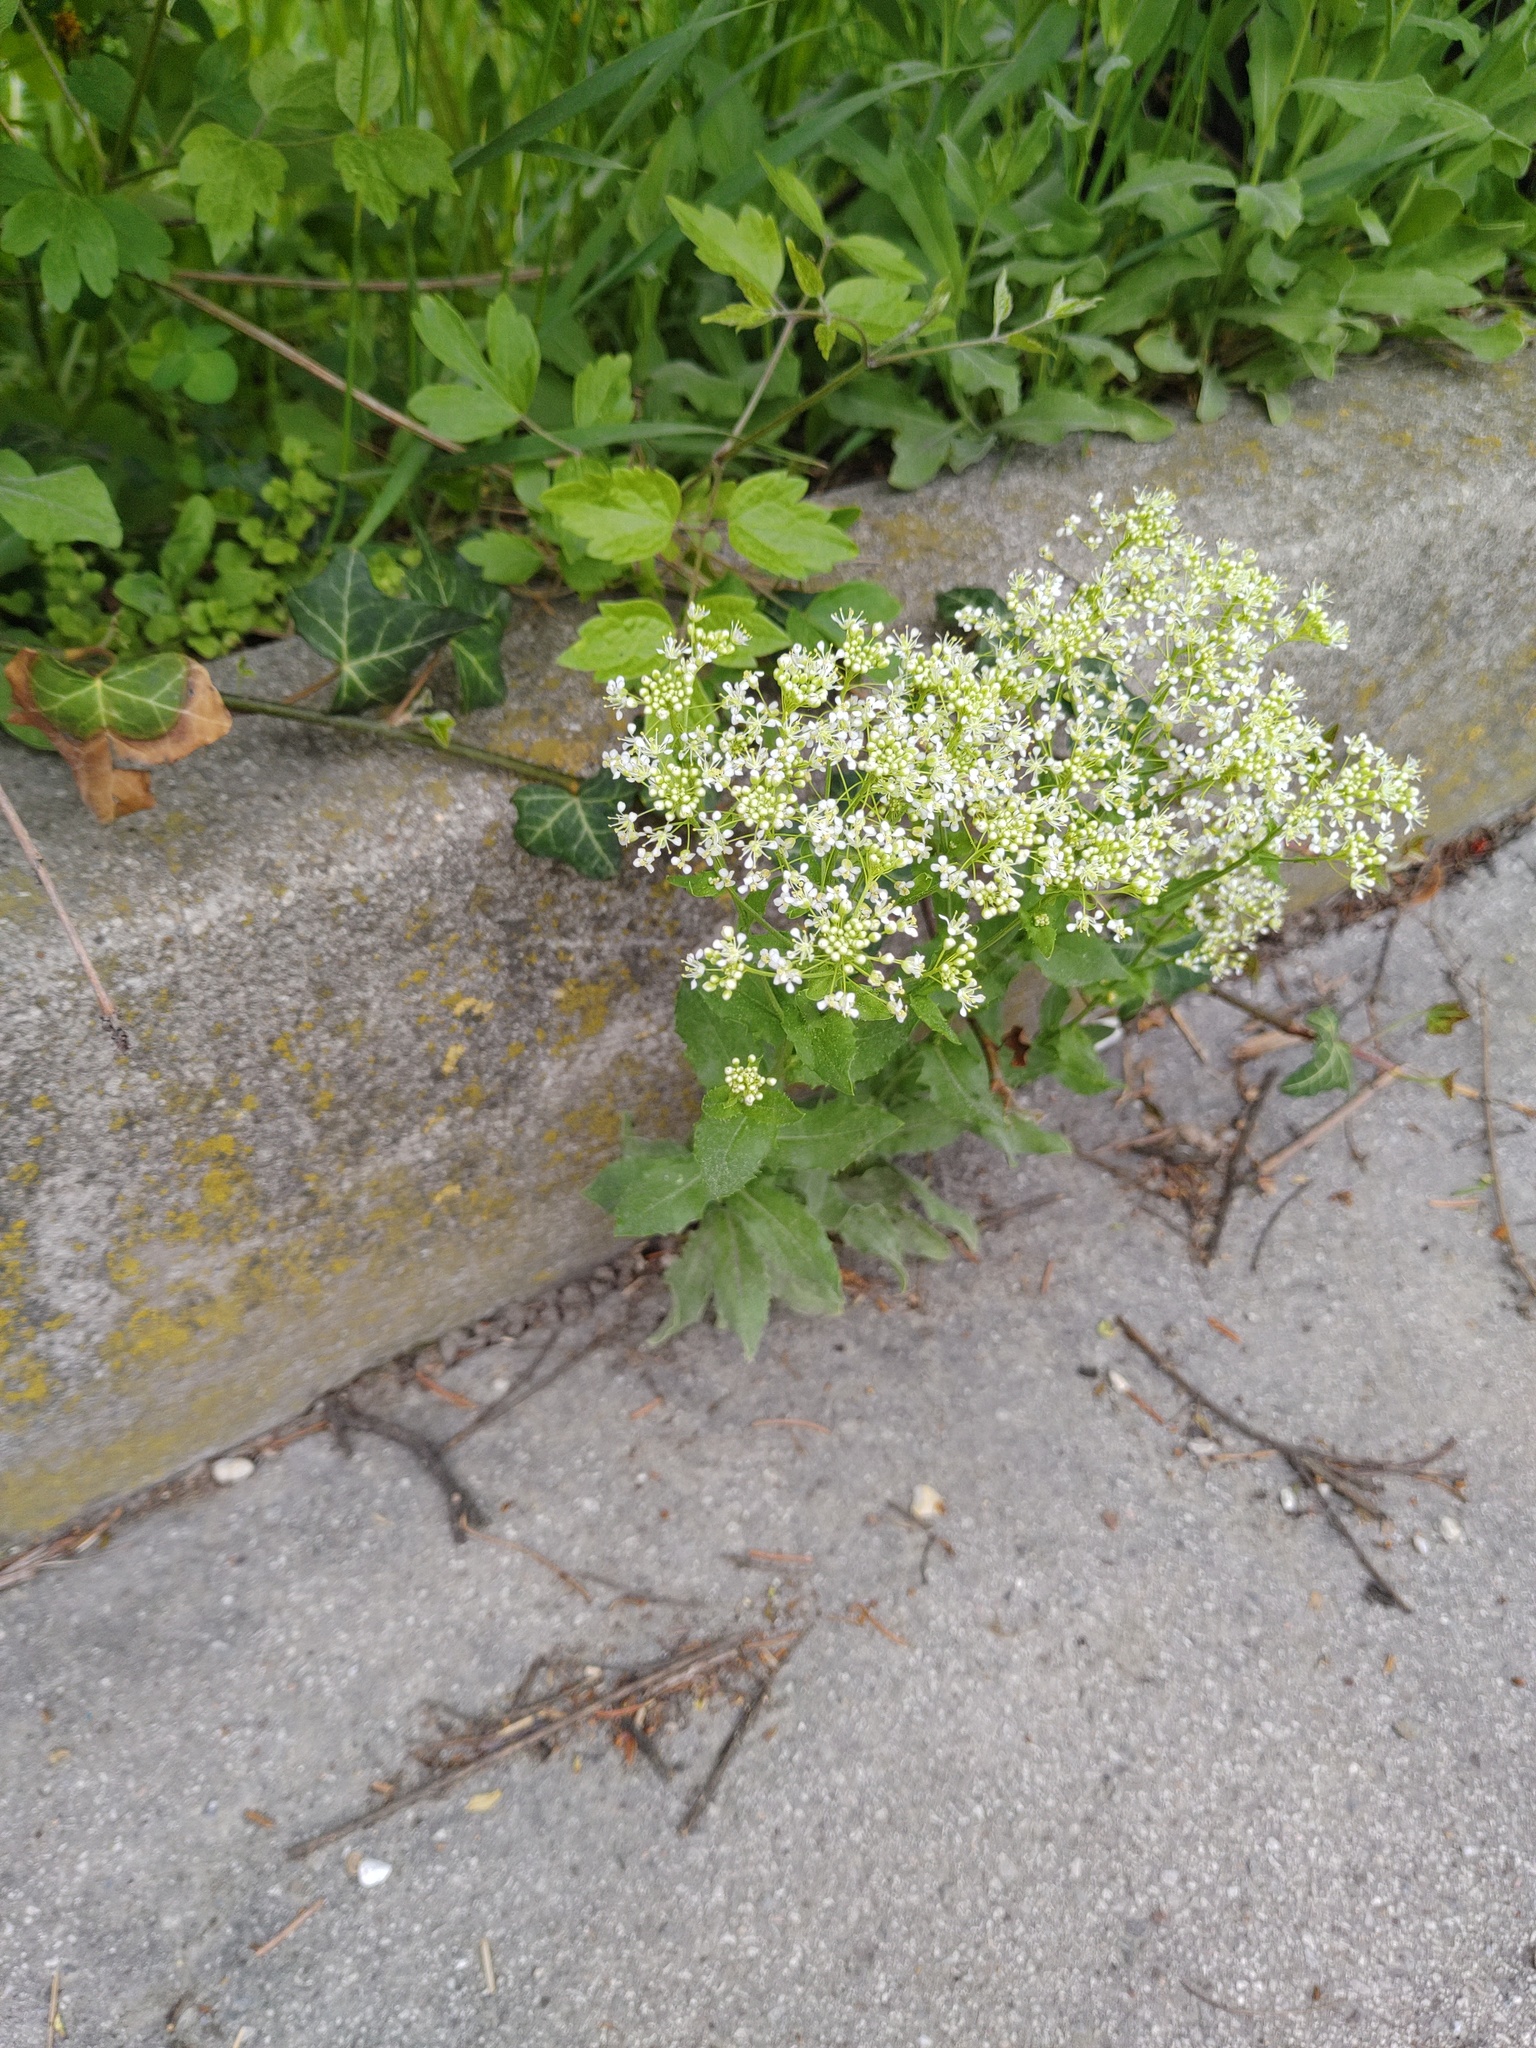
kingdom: Plantae
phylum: Tracheophyta
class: Magnoliopsida
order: Brassicales
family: Brassicaceae
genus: Lepidium
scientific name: Lepidium draba
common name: Hoary cress
